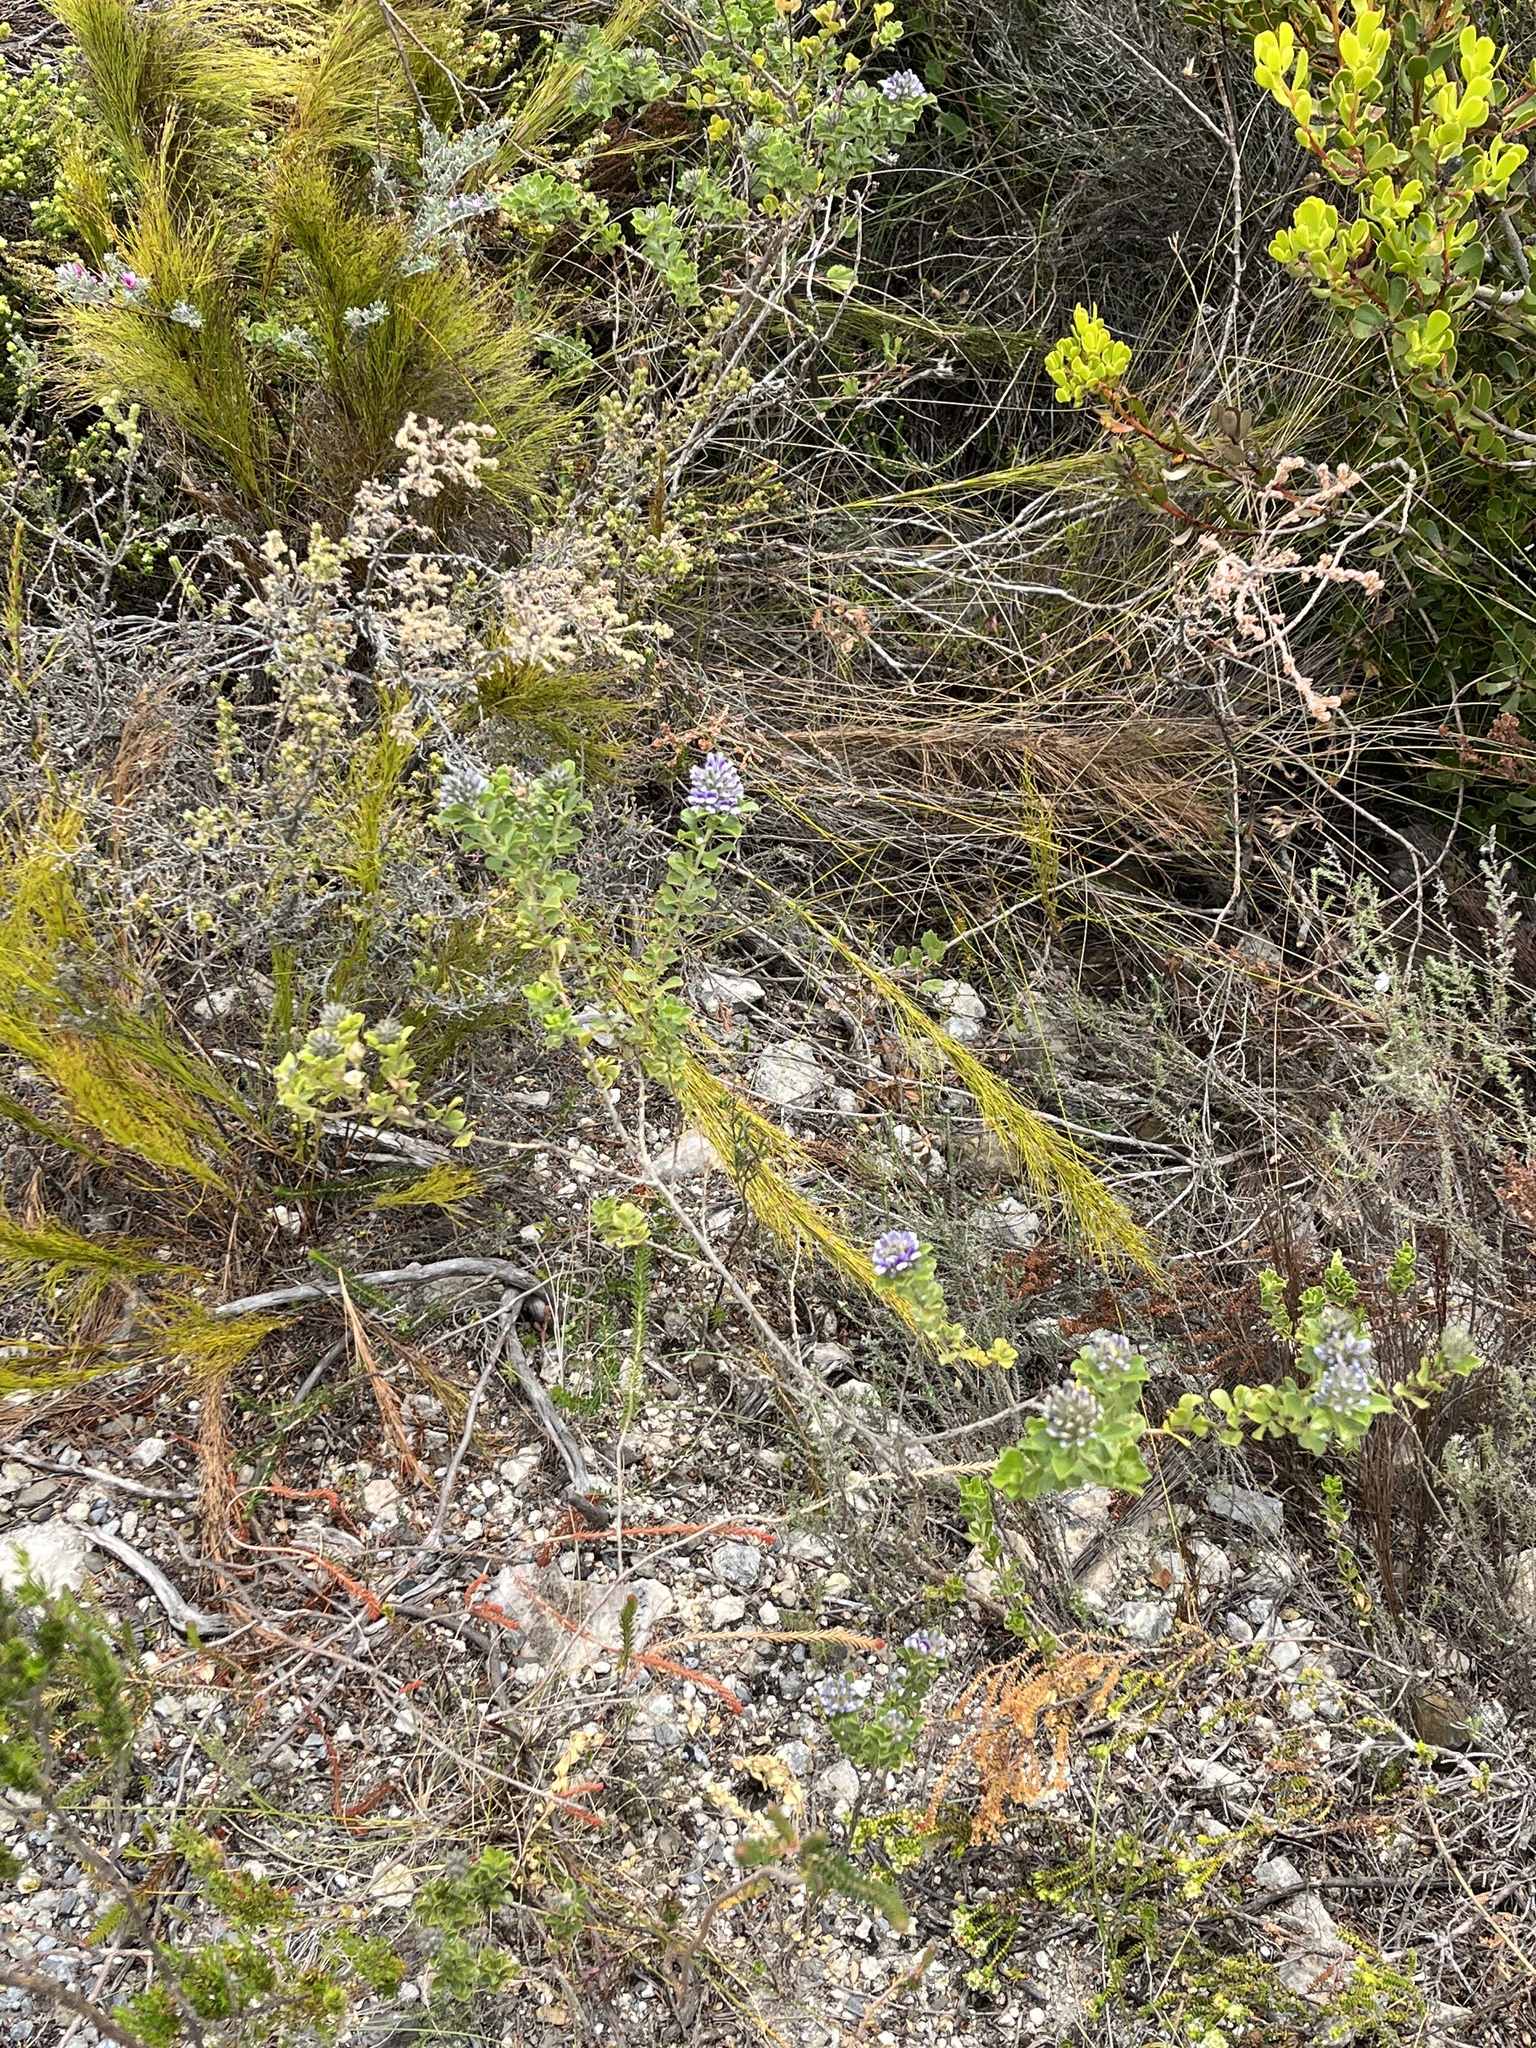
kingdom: Plantae
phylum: Tracheophyta
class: Magnoliopsida
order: Fabales
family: Fabaceae
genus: Psoralea
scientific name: Psoralea bracteolata
